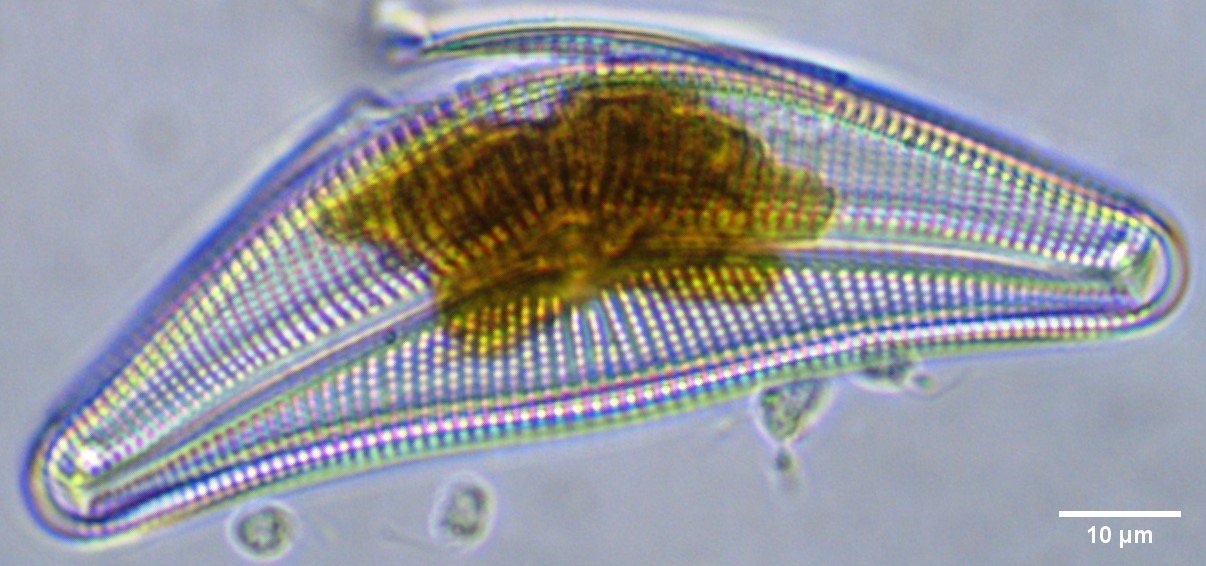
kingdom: Chromista
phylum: Ochrophyta
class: Bacillariophyceae
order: Cymbellales
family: Cymbellaceae
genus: Cymbella
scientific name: Cymbella mesiana
